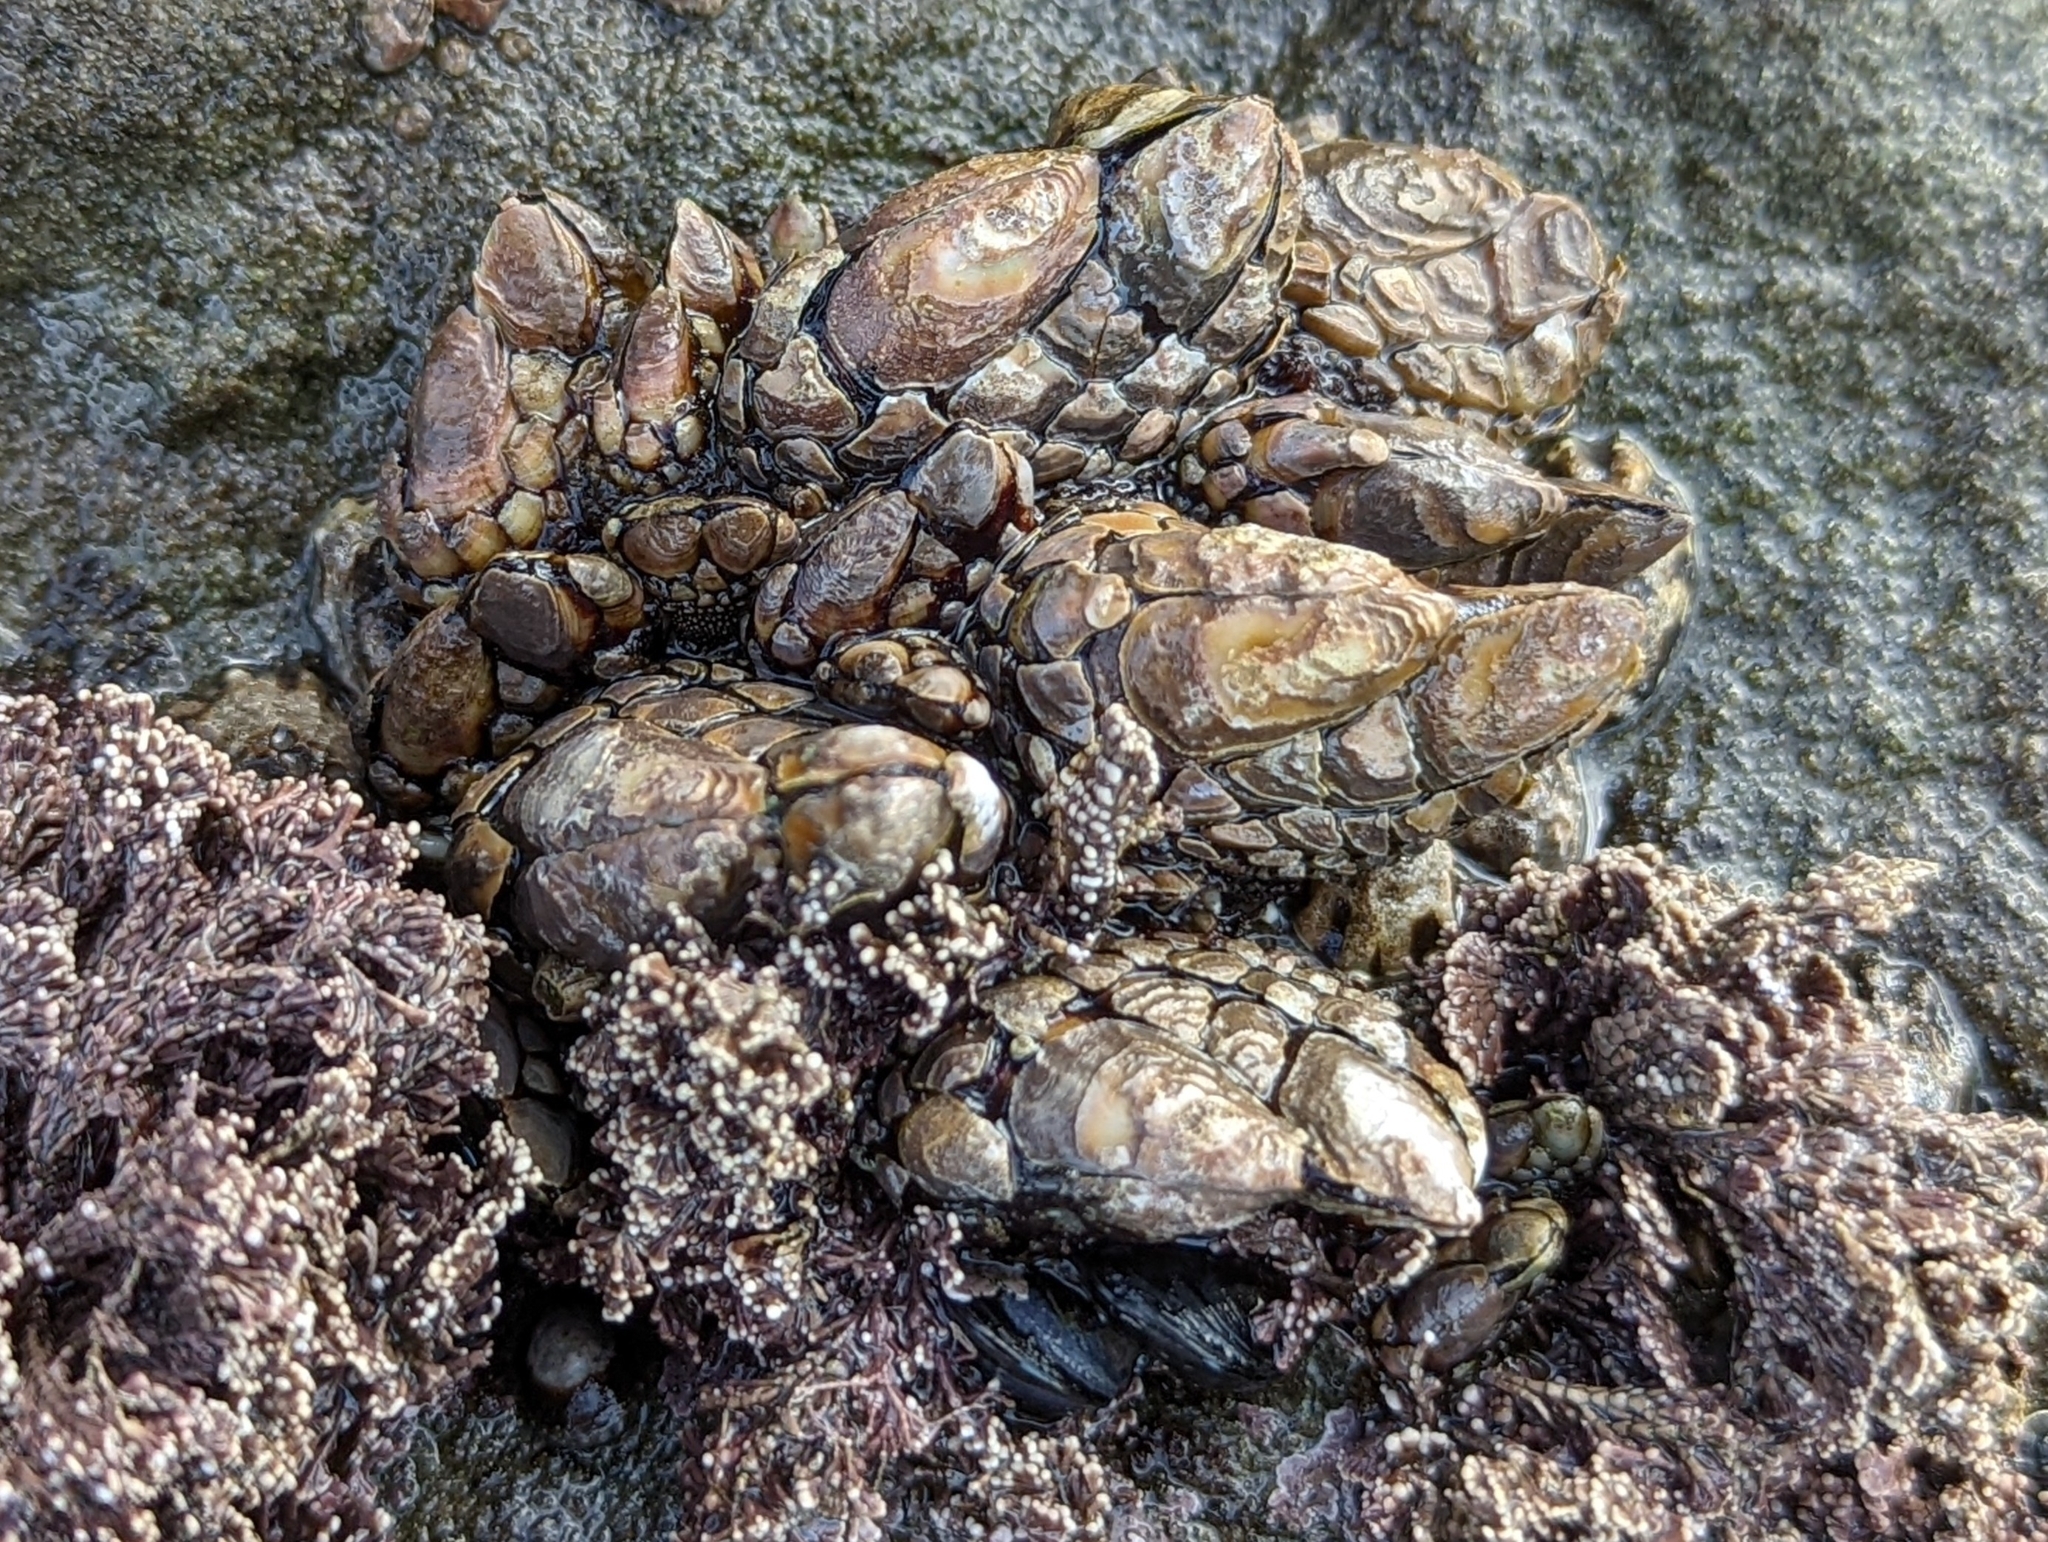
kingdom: Animalia
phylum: Arthropoda
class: Maxillopoda
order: Pedunculata
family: Pollicipedidae
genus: Pollicipes
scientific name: Pollicipes polymerus
